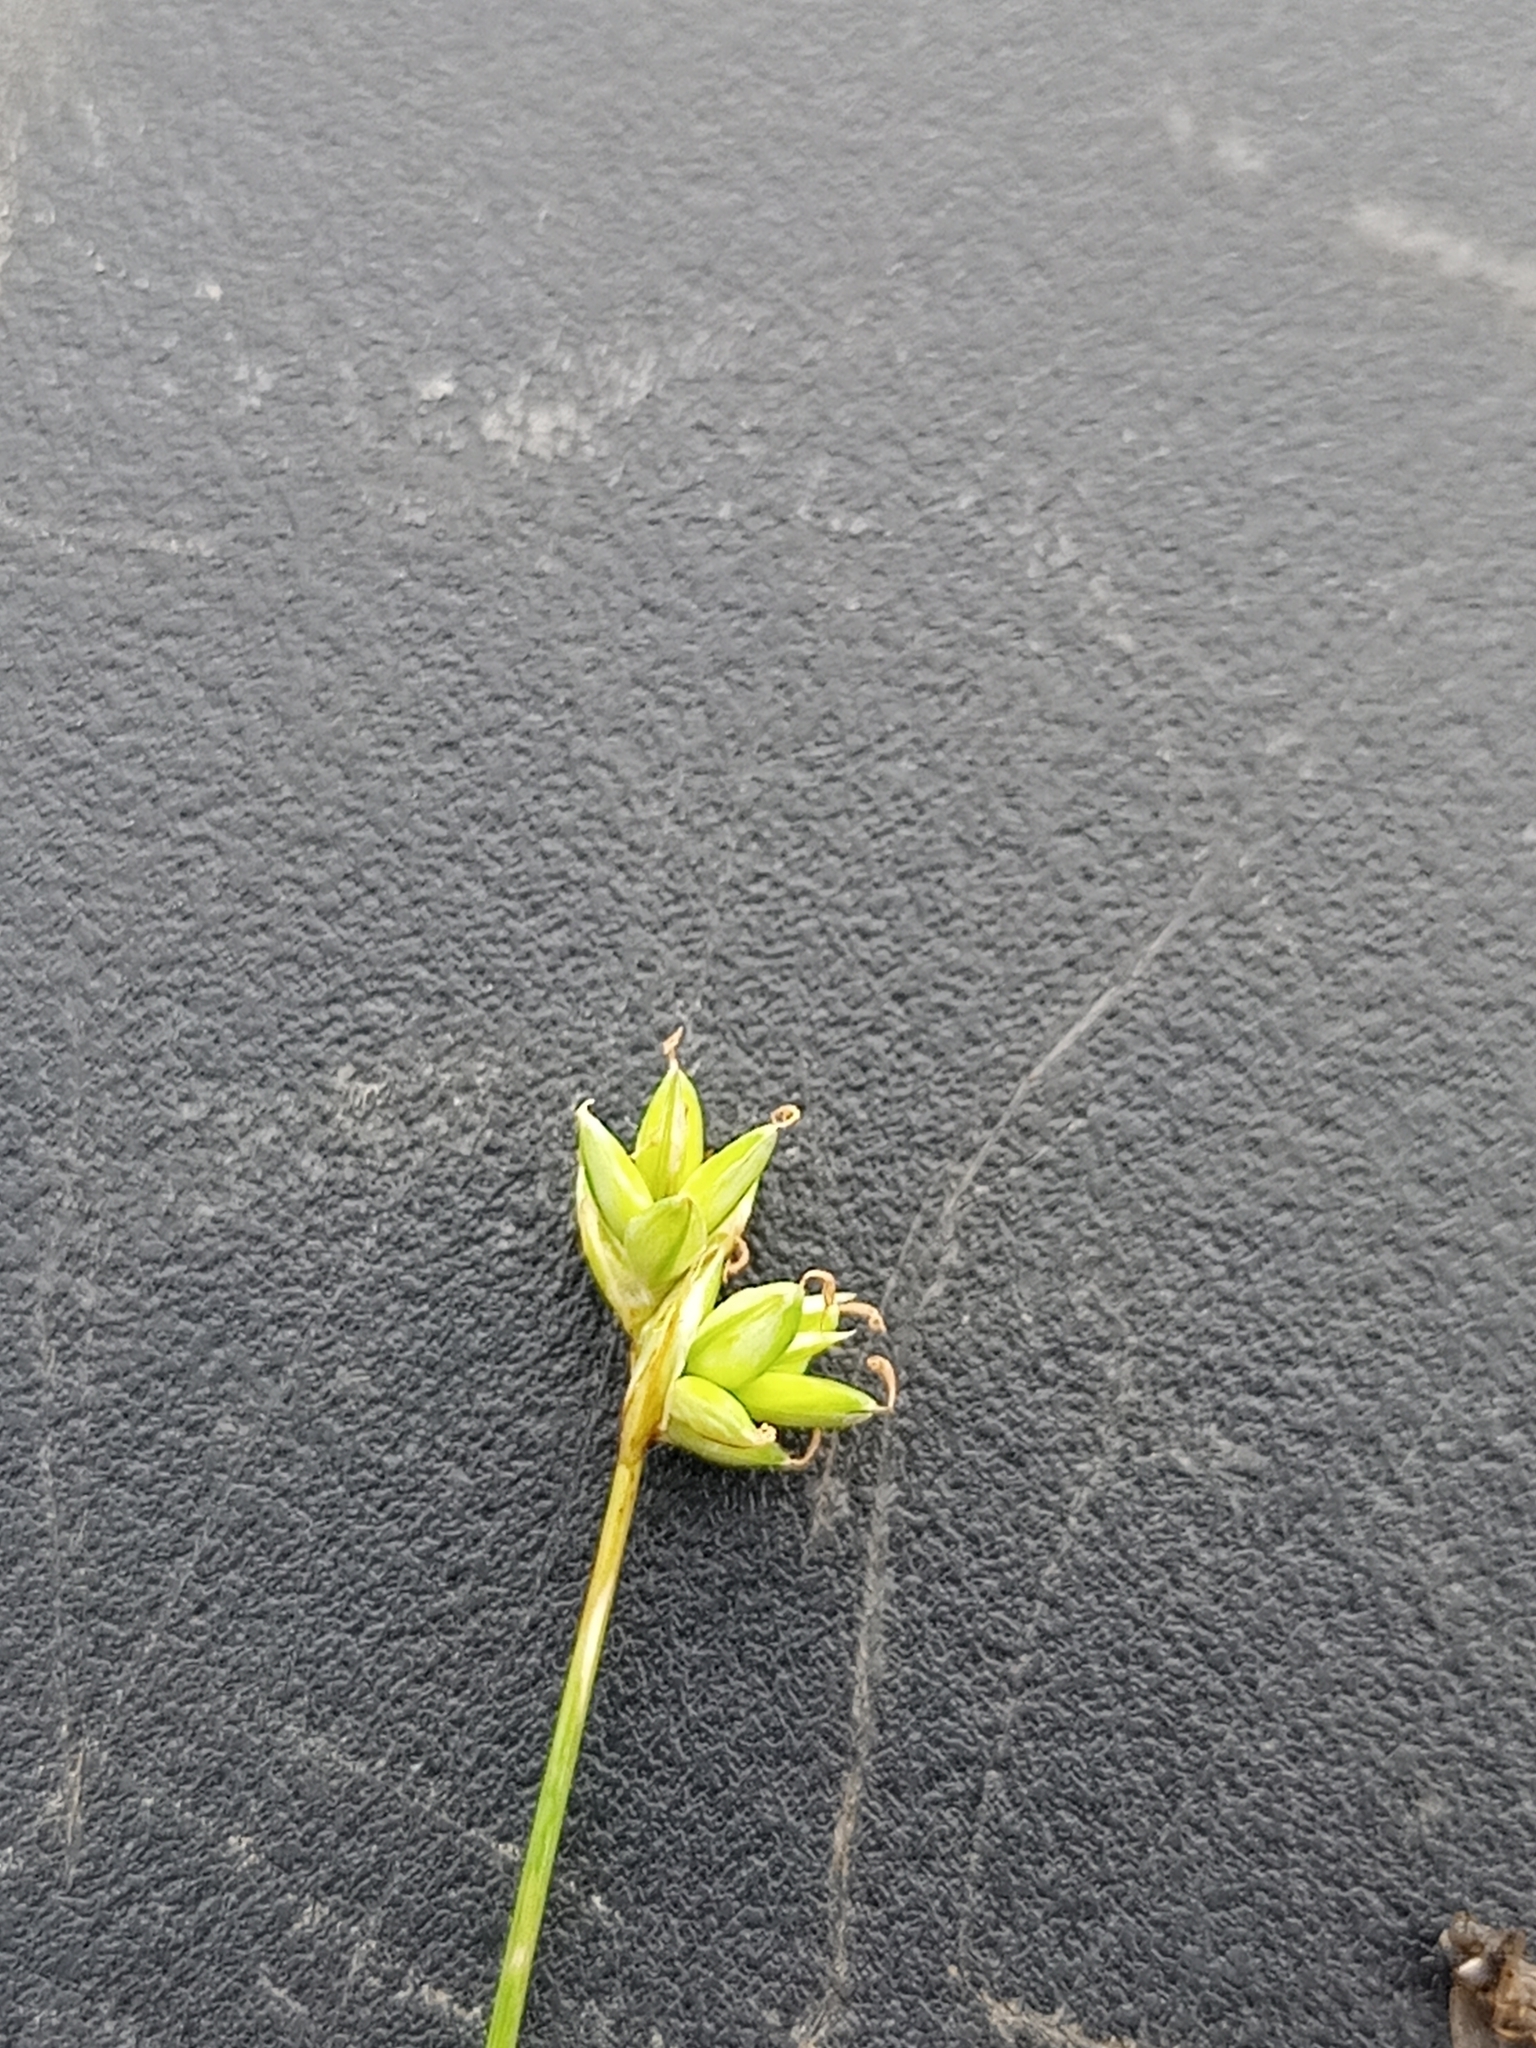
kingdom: Plantae
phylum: Tracheophyta
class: Liliopsida
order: Poales
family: Cyperaceae
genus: Carex
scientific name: Carex tenuiflora
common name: Sparse-flowered sedge
